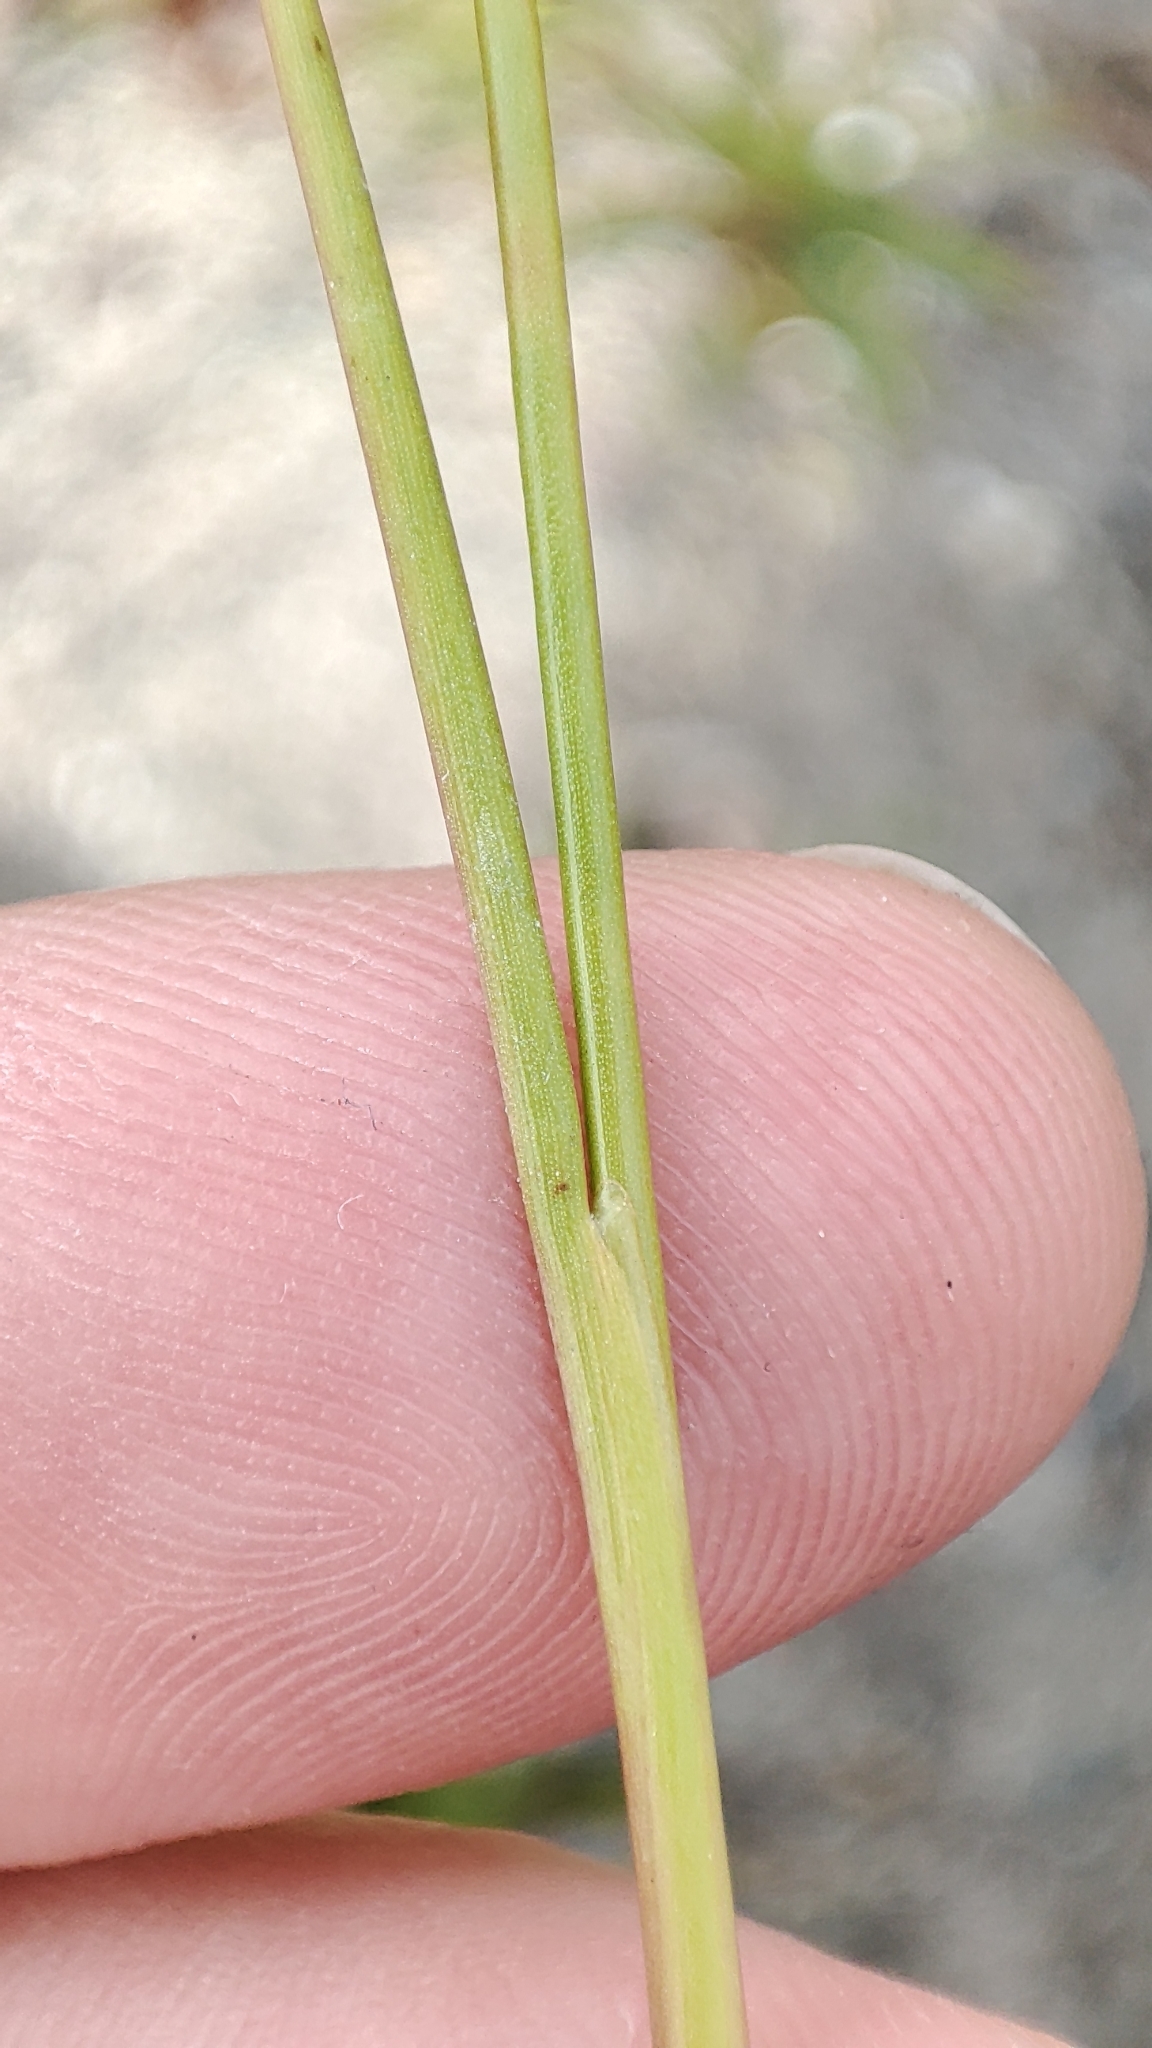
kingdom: Plantae
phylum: Tracheophyta
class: Liliopsida
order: Poales
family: Juncaceae
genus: Juncus
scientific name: Juncus alpinoarticulatus
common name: Alpine rush
